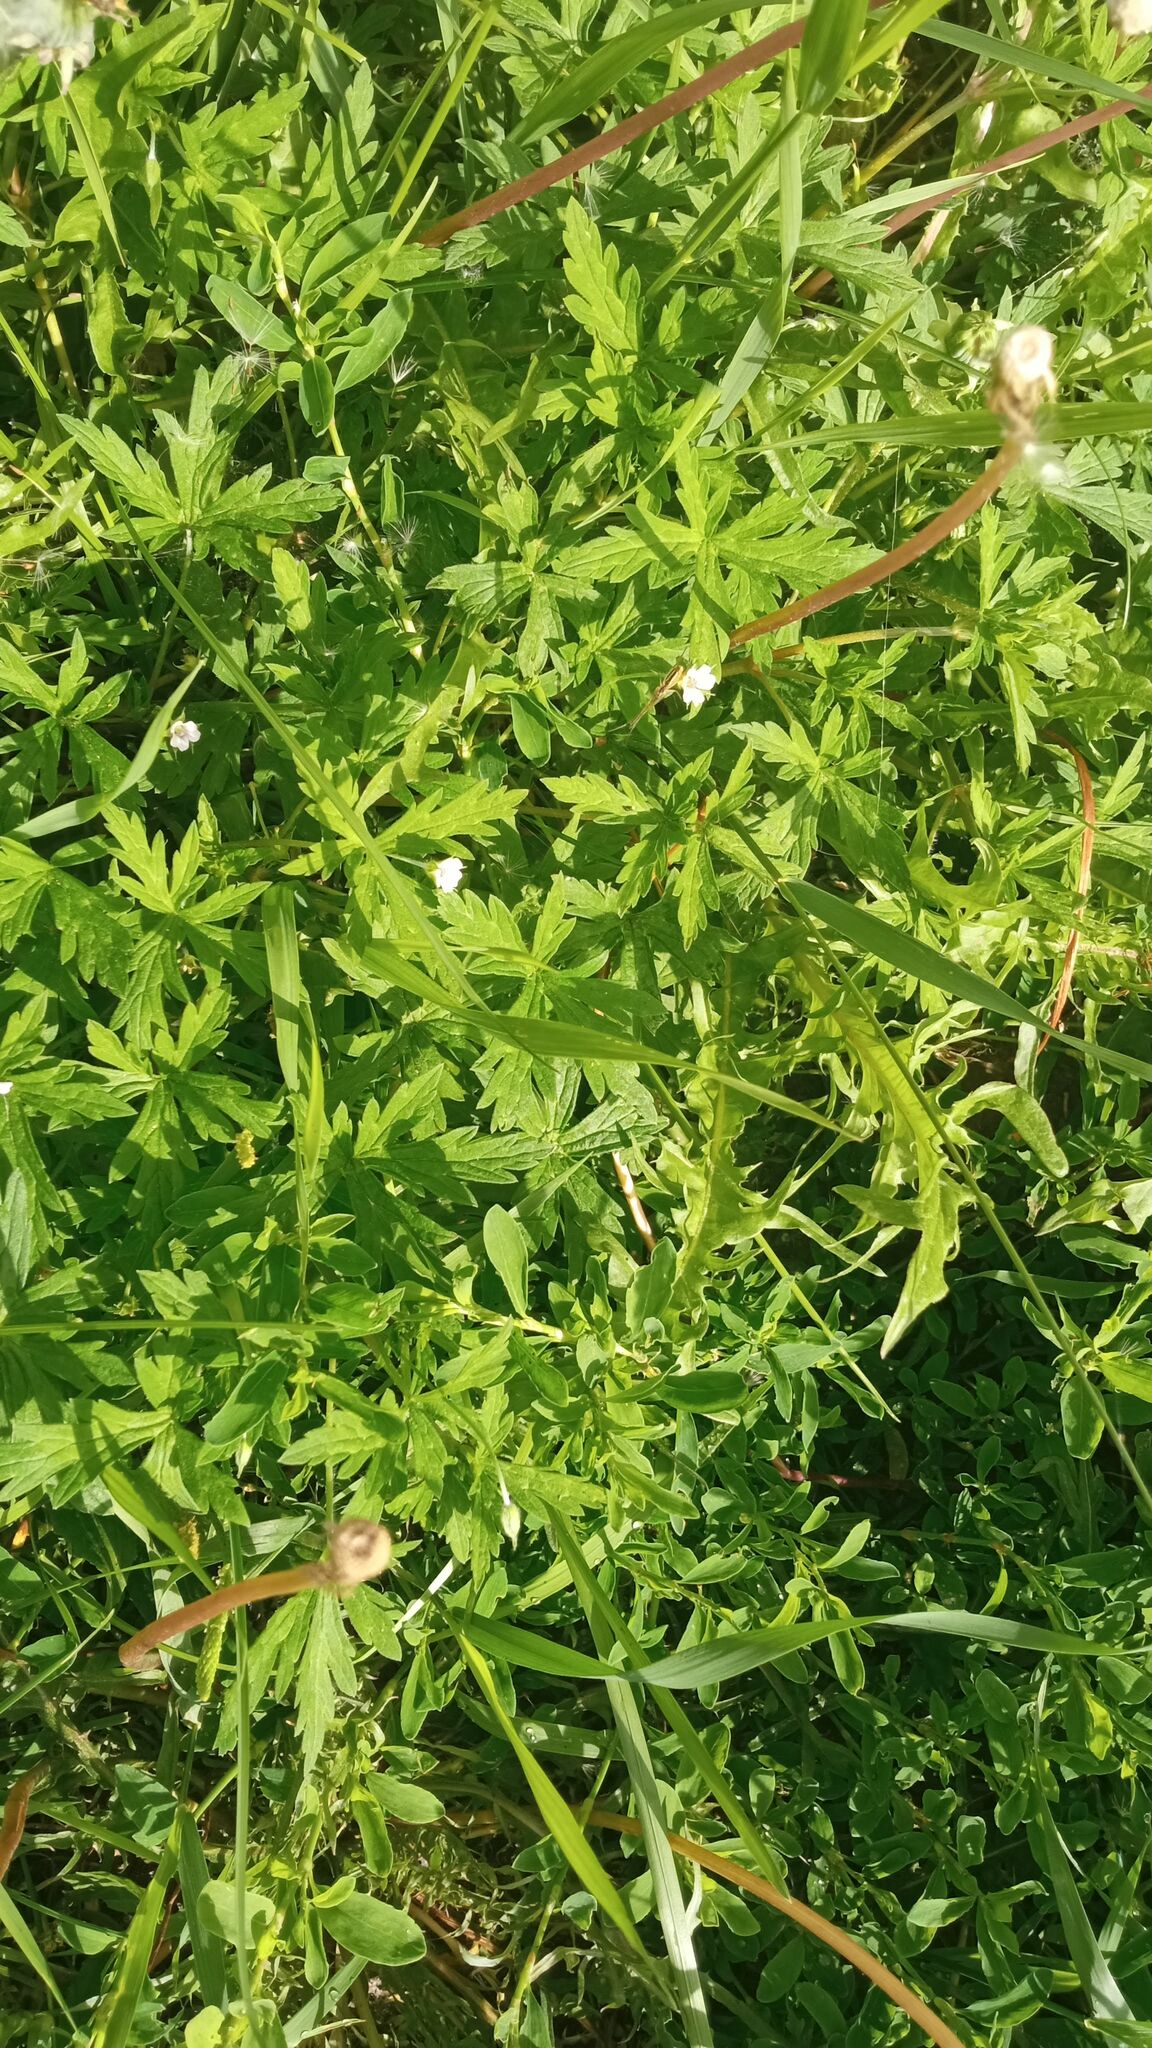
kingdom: Plantae
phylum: Tracheophyta
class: Magnoliopsida
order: Geraniales
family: Geraniaceae
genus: Geranium
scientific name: Geranium sibiricum
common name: Siberian crane's-bill
